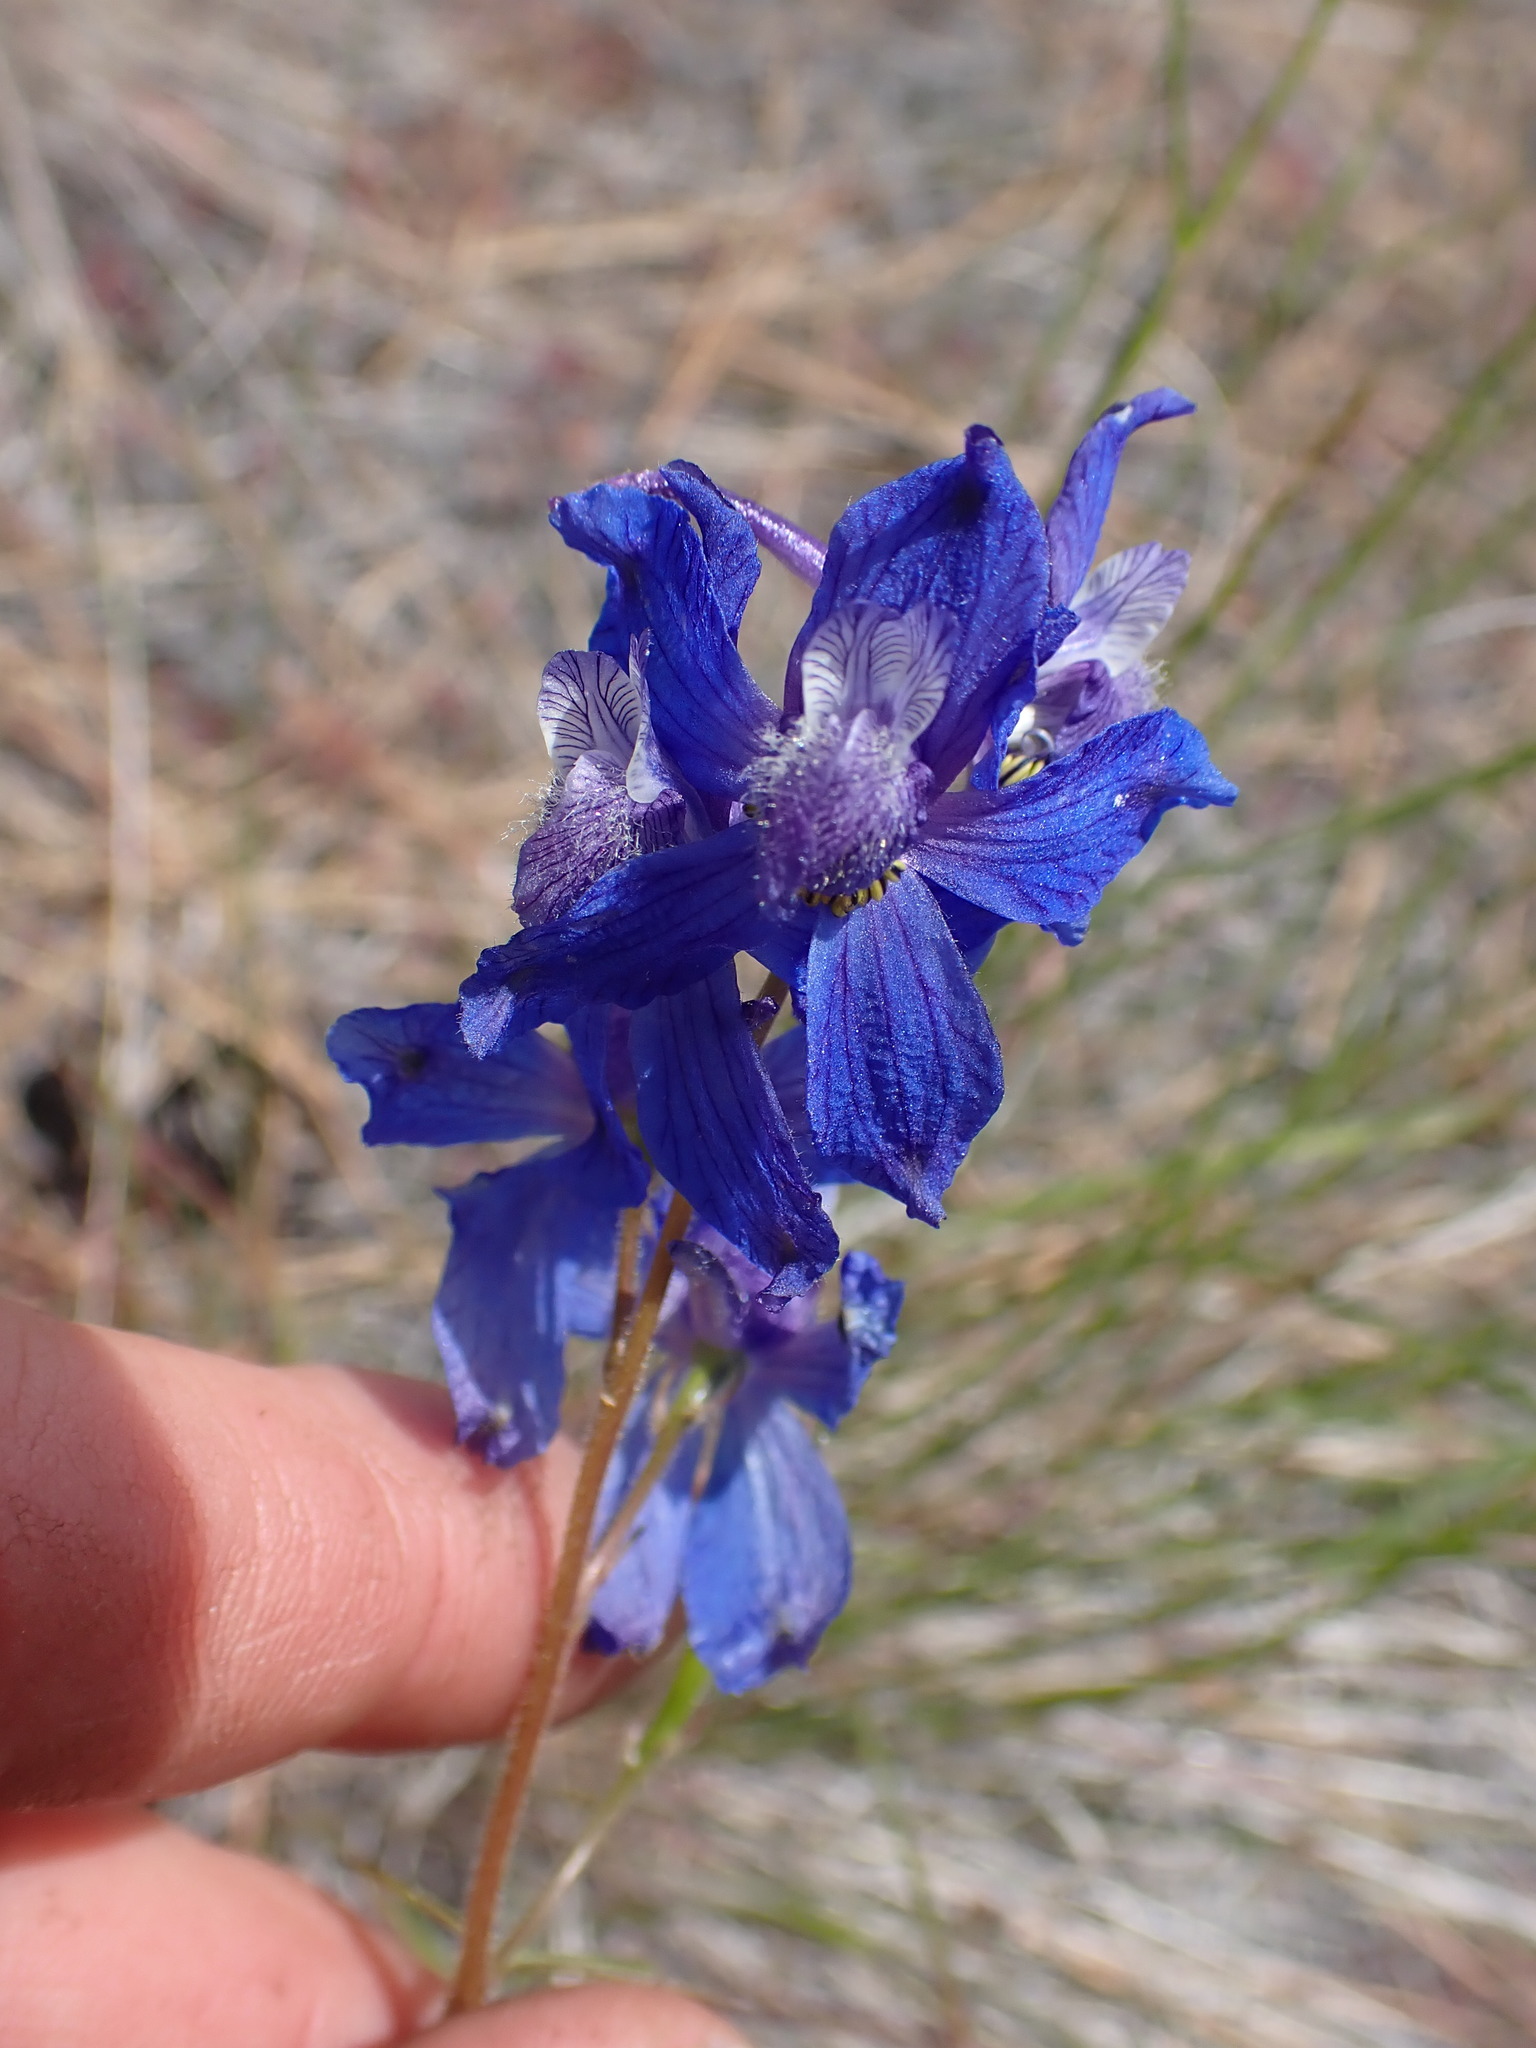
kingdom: Plantae
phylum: Tracheophyta
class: Magnoliopsida
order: Ranunculales
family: Ranunculaceae
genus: Delphinium
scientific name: Delphinium nuttallianum
